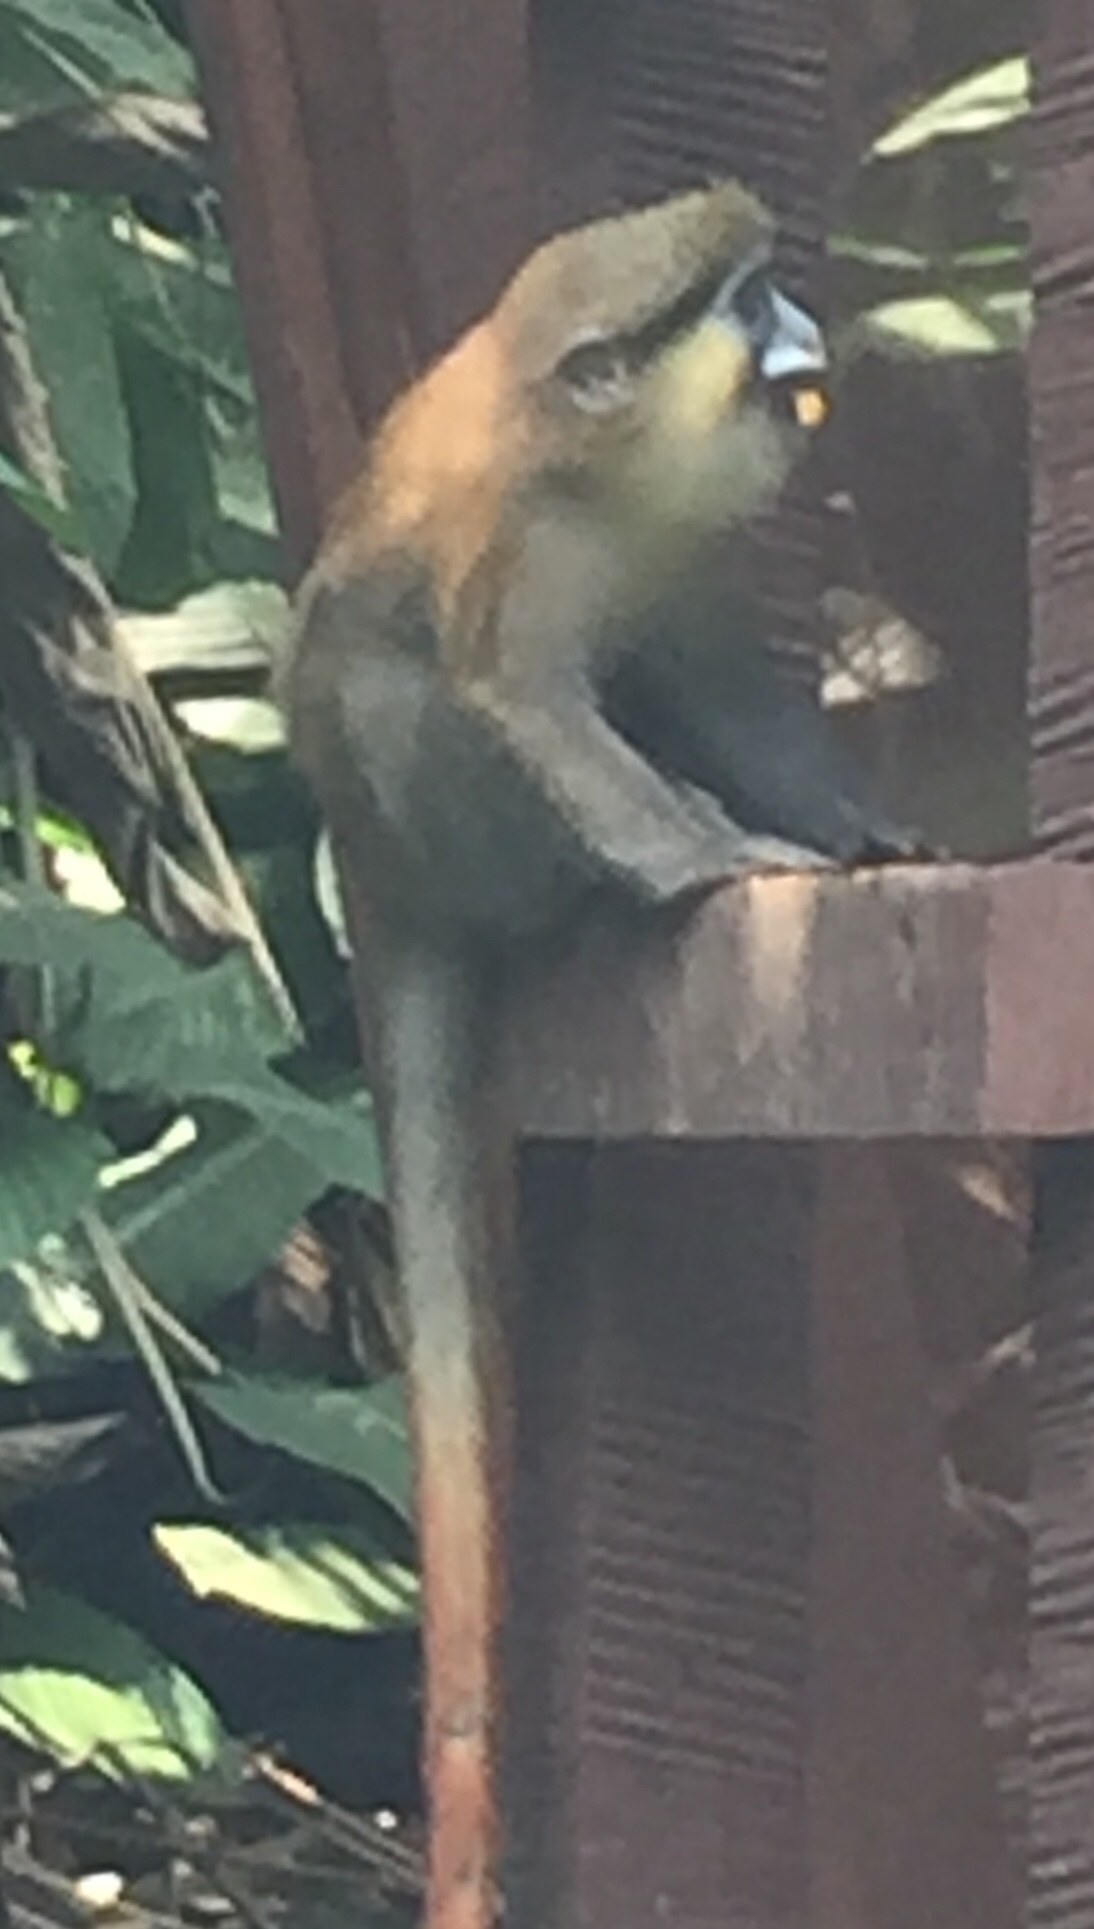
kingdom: Animalia
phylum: Chordata
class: Mammalia
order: Primates
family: Cercopithecidae
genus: Cercopithecus
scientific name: Cercopithecus cephus
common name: Moustached guenon
